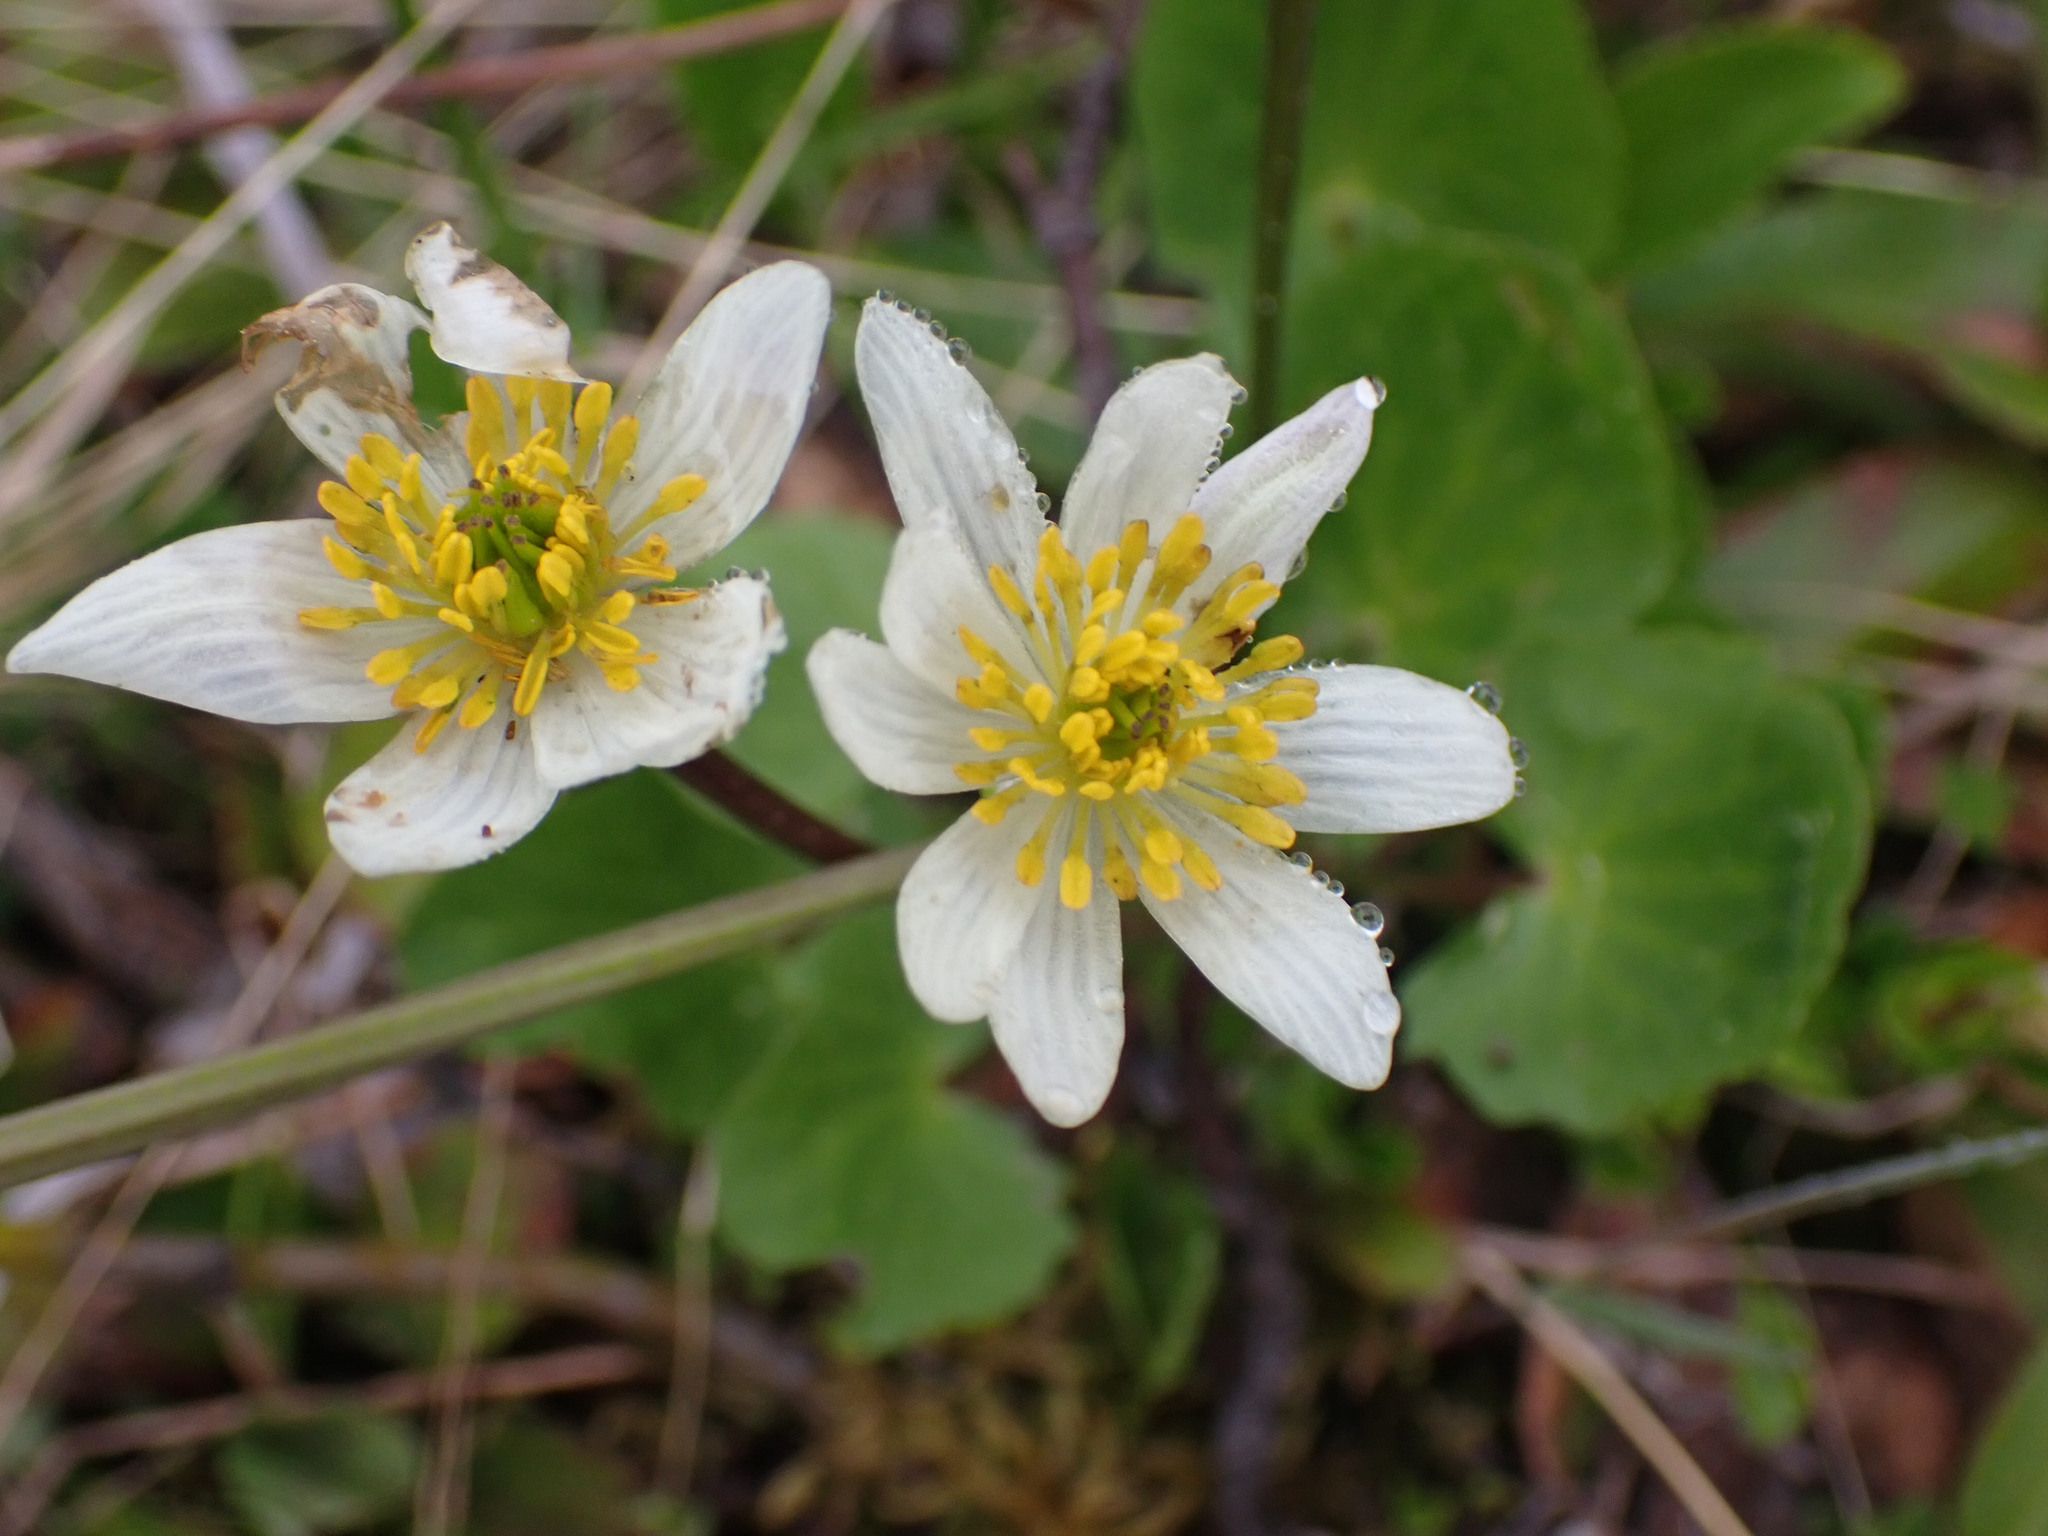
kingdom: Plantae
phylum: Tracheophyta
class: Magnoliopsida
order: Ranunculales
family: Ranunculaceae
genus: Caltha
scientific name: Caltha leptosepala
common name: Elkslip
